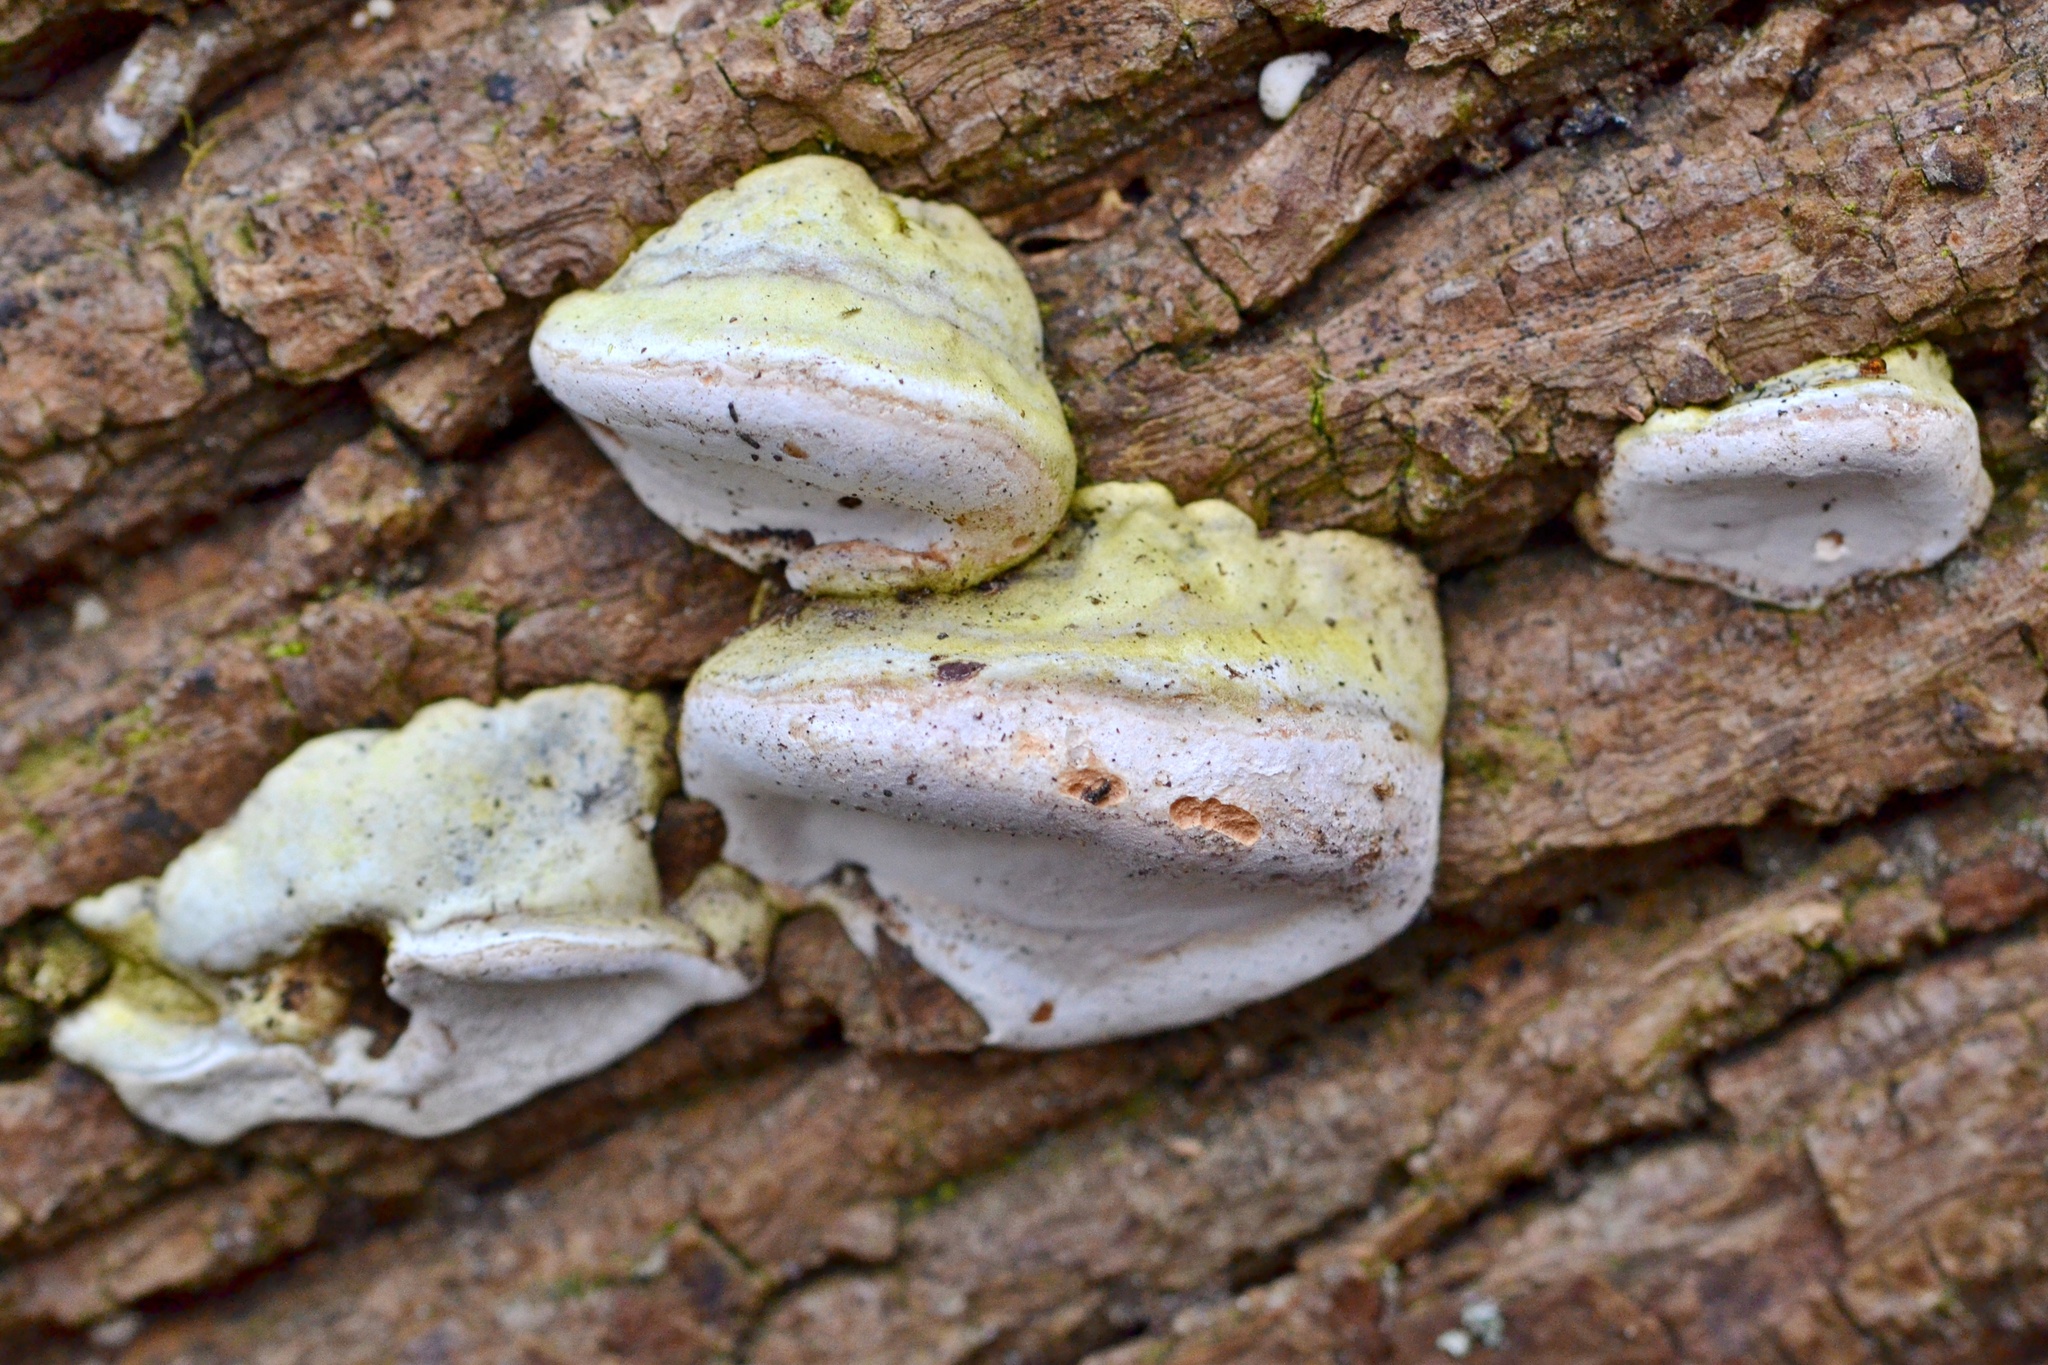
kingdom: Fungi
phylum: Basidiomycota
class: Agaricomycetes
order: Polyporales
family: Polyporaceae
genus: Fomes
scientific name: Fomes fomentarius
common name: Hoof fungus
